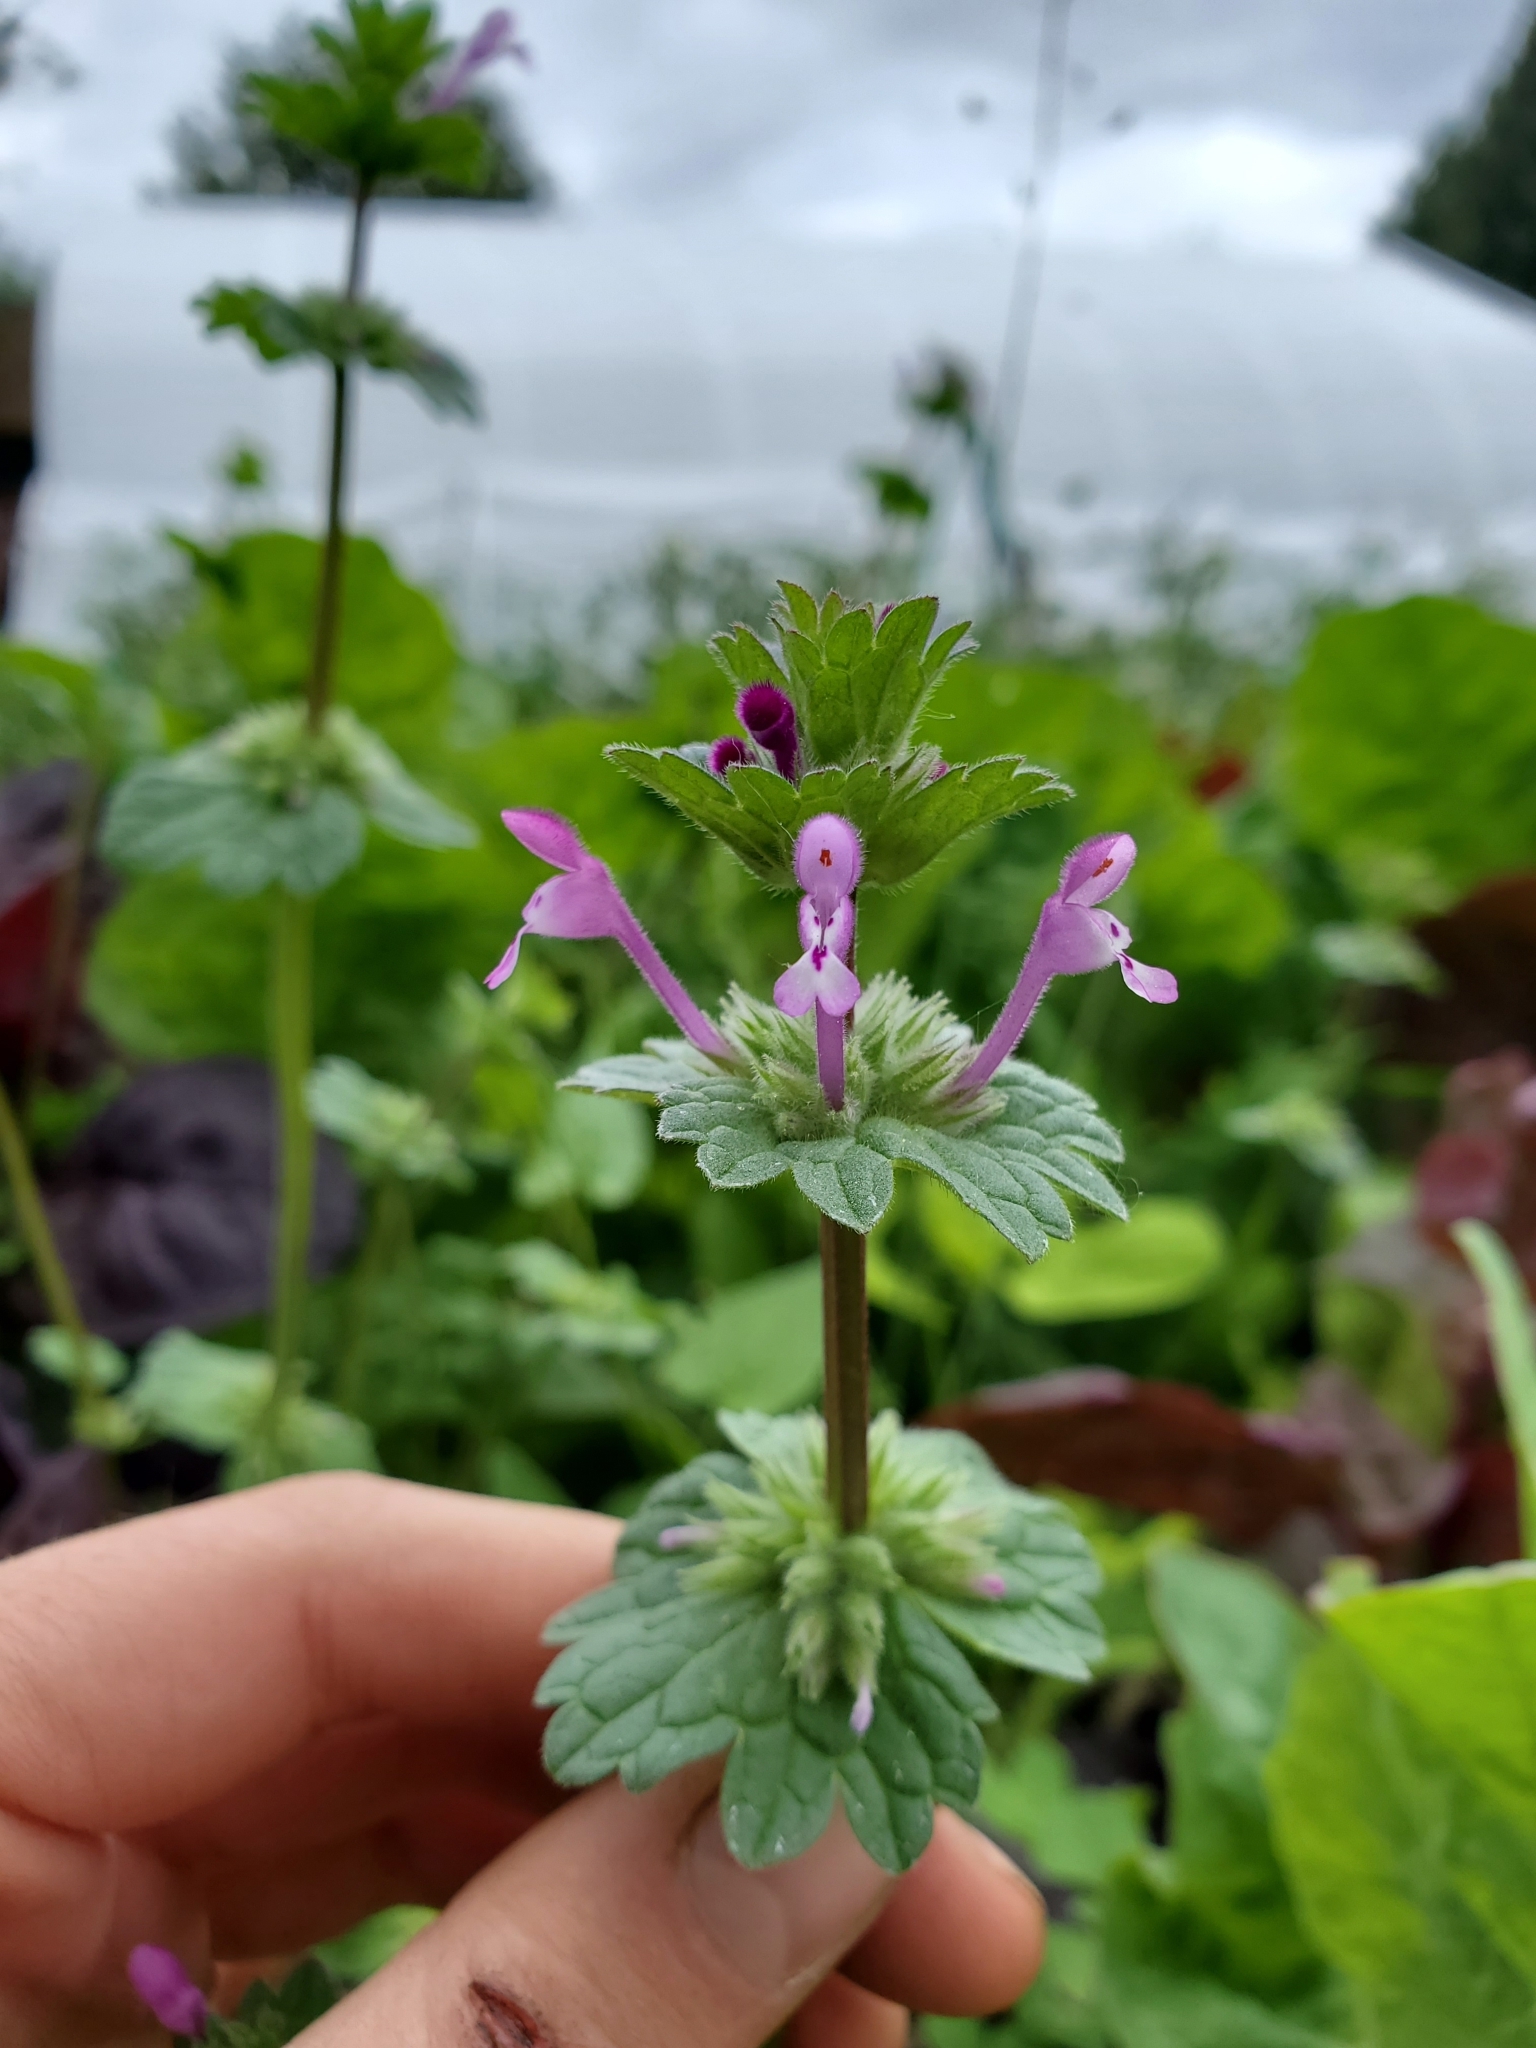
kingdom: Plantae
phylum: Tracheophyta
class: Magnoliopsida
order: Lamiales
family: Lamiaceae
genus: Lamium
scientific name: Lamium amplexicaule
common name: Henbit dead-nettle
